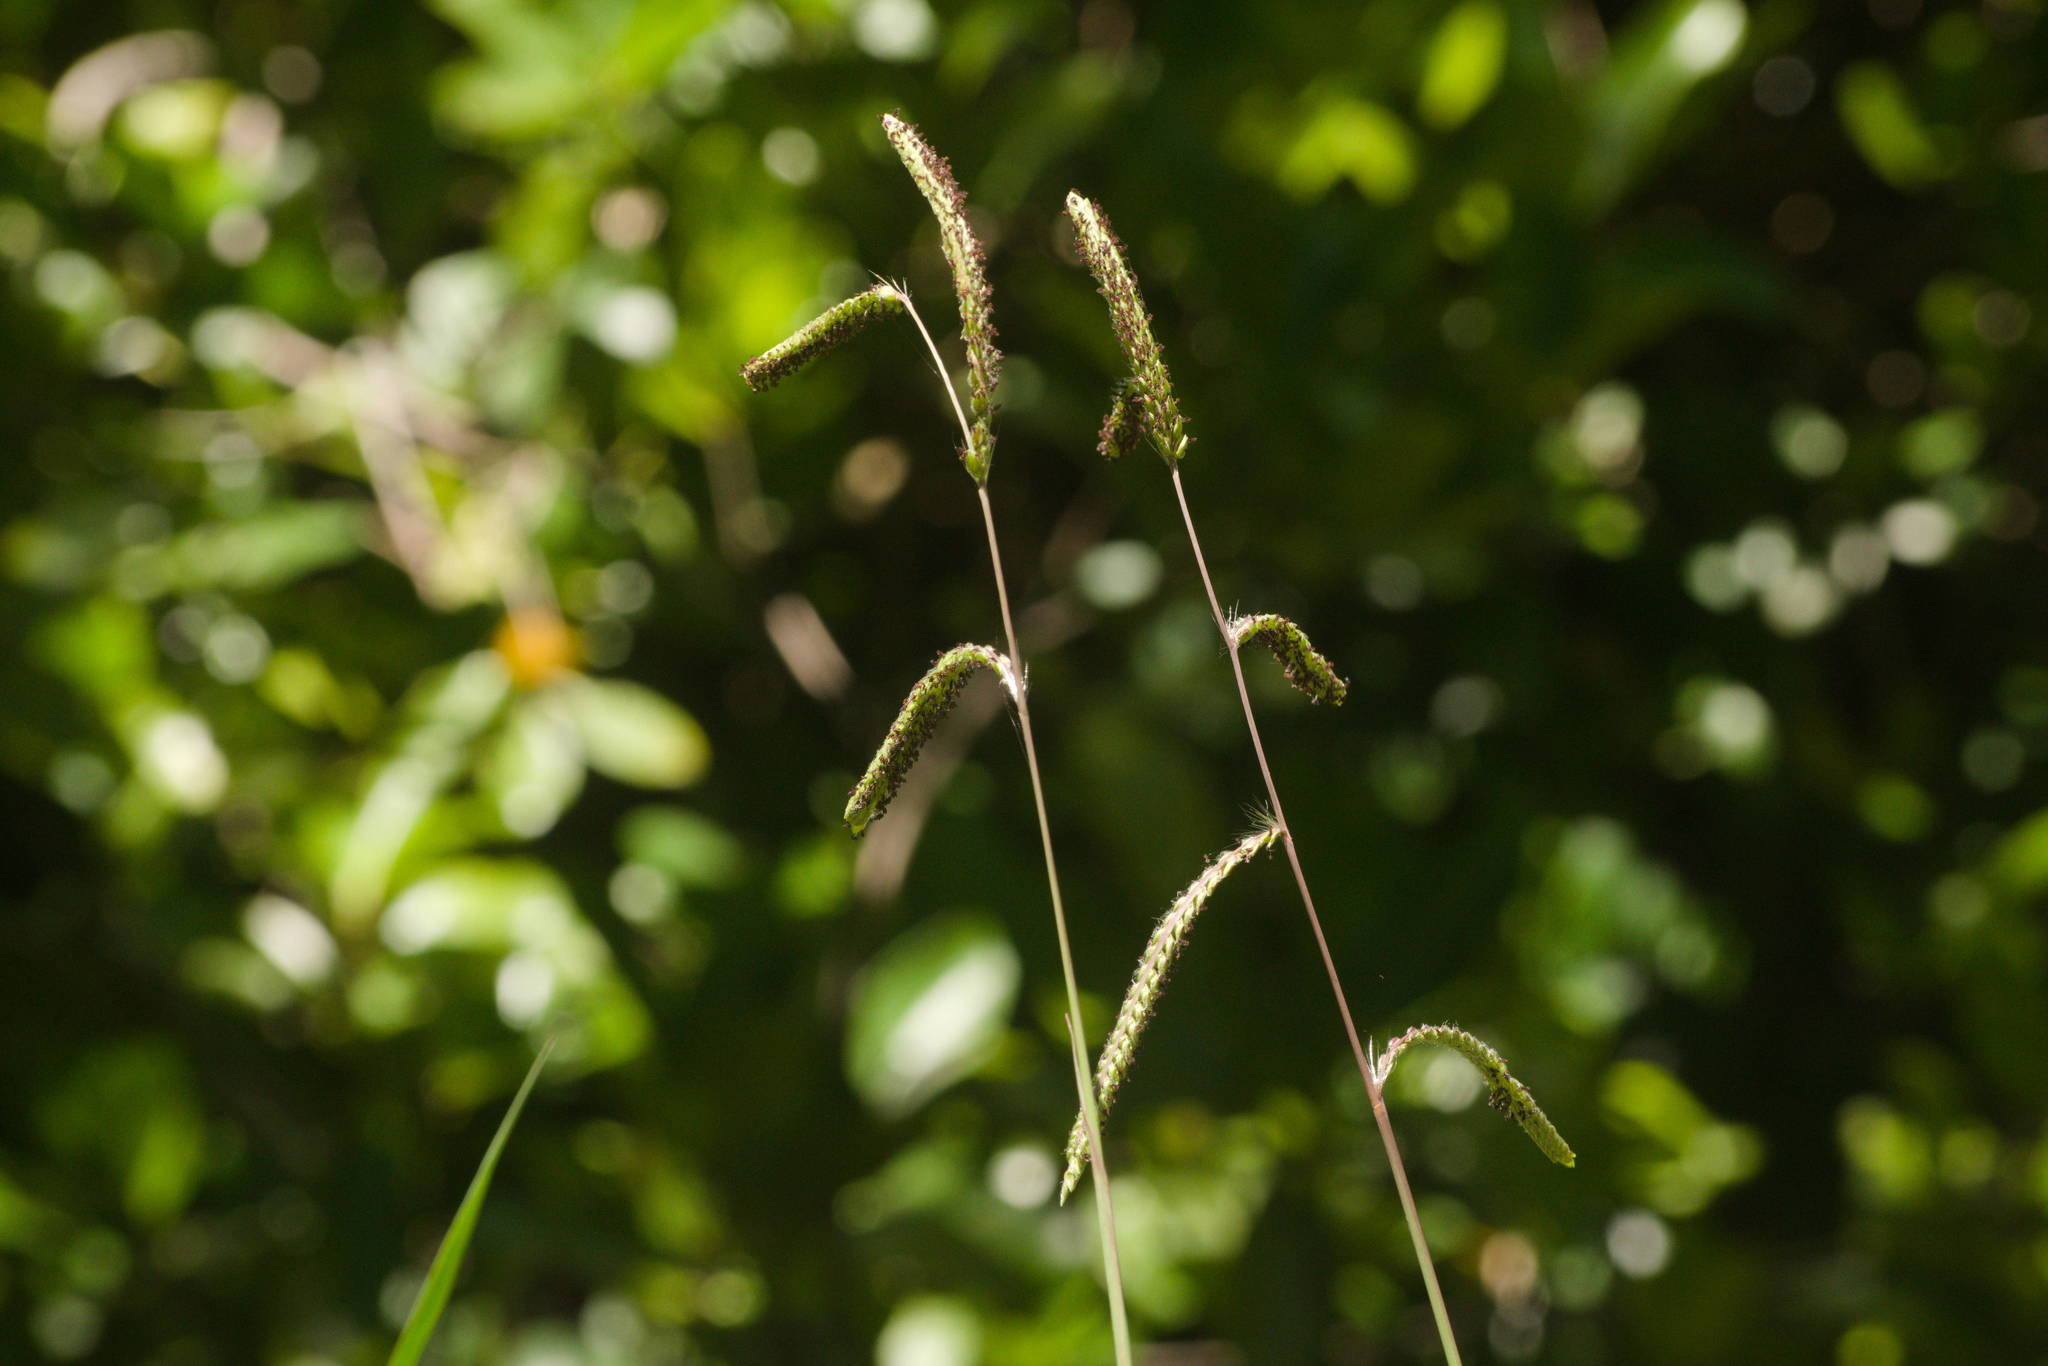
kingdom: Plantae
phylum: Tracheophyta
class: Liliopsida
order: Poales
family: Poaceae
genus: Paspalum
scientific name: Paspalum dilatatum
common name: Dallisgrass
